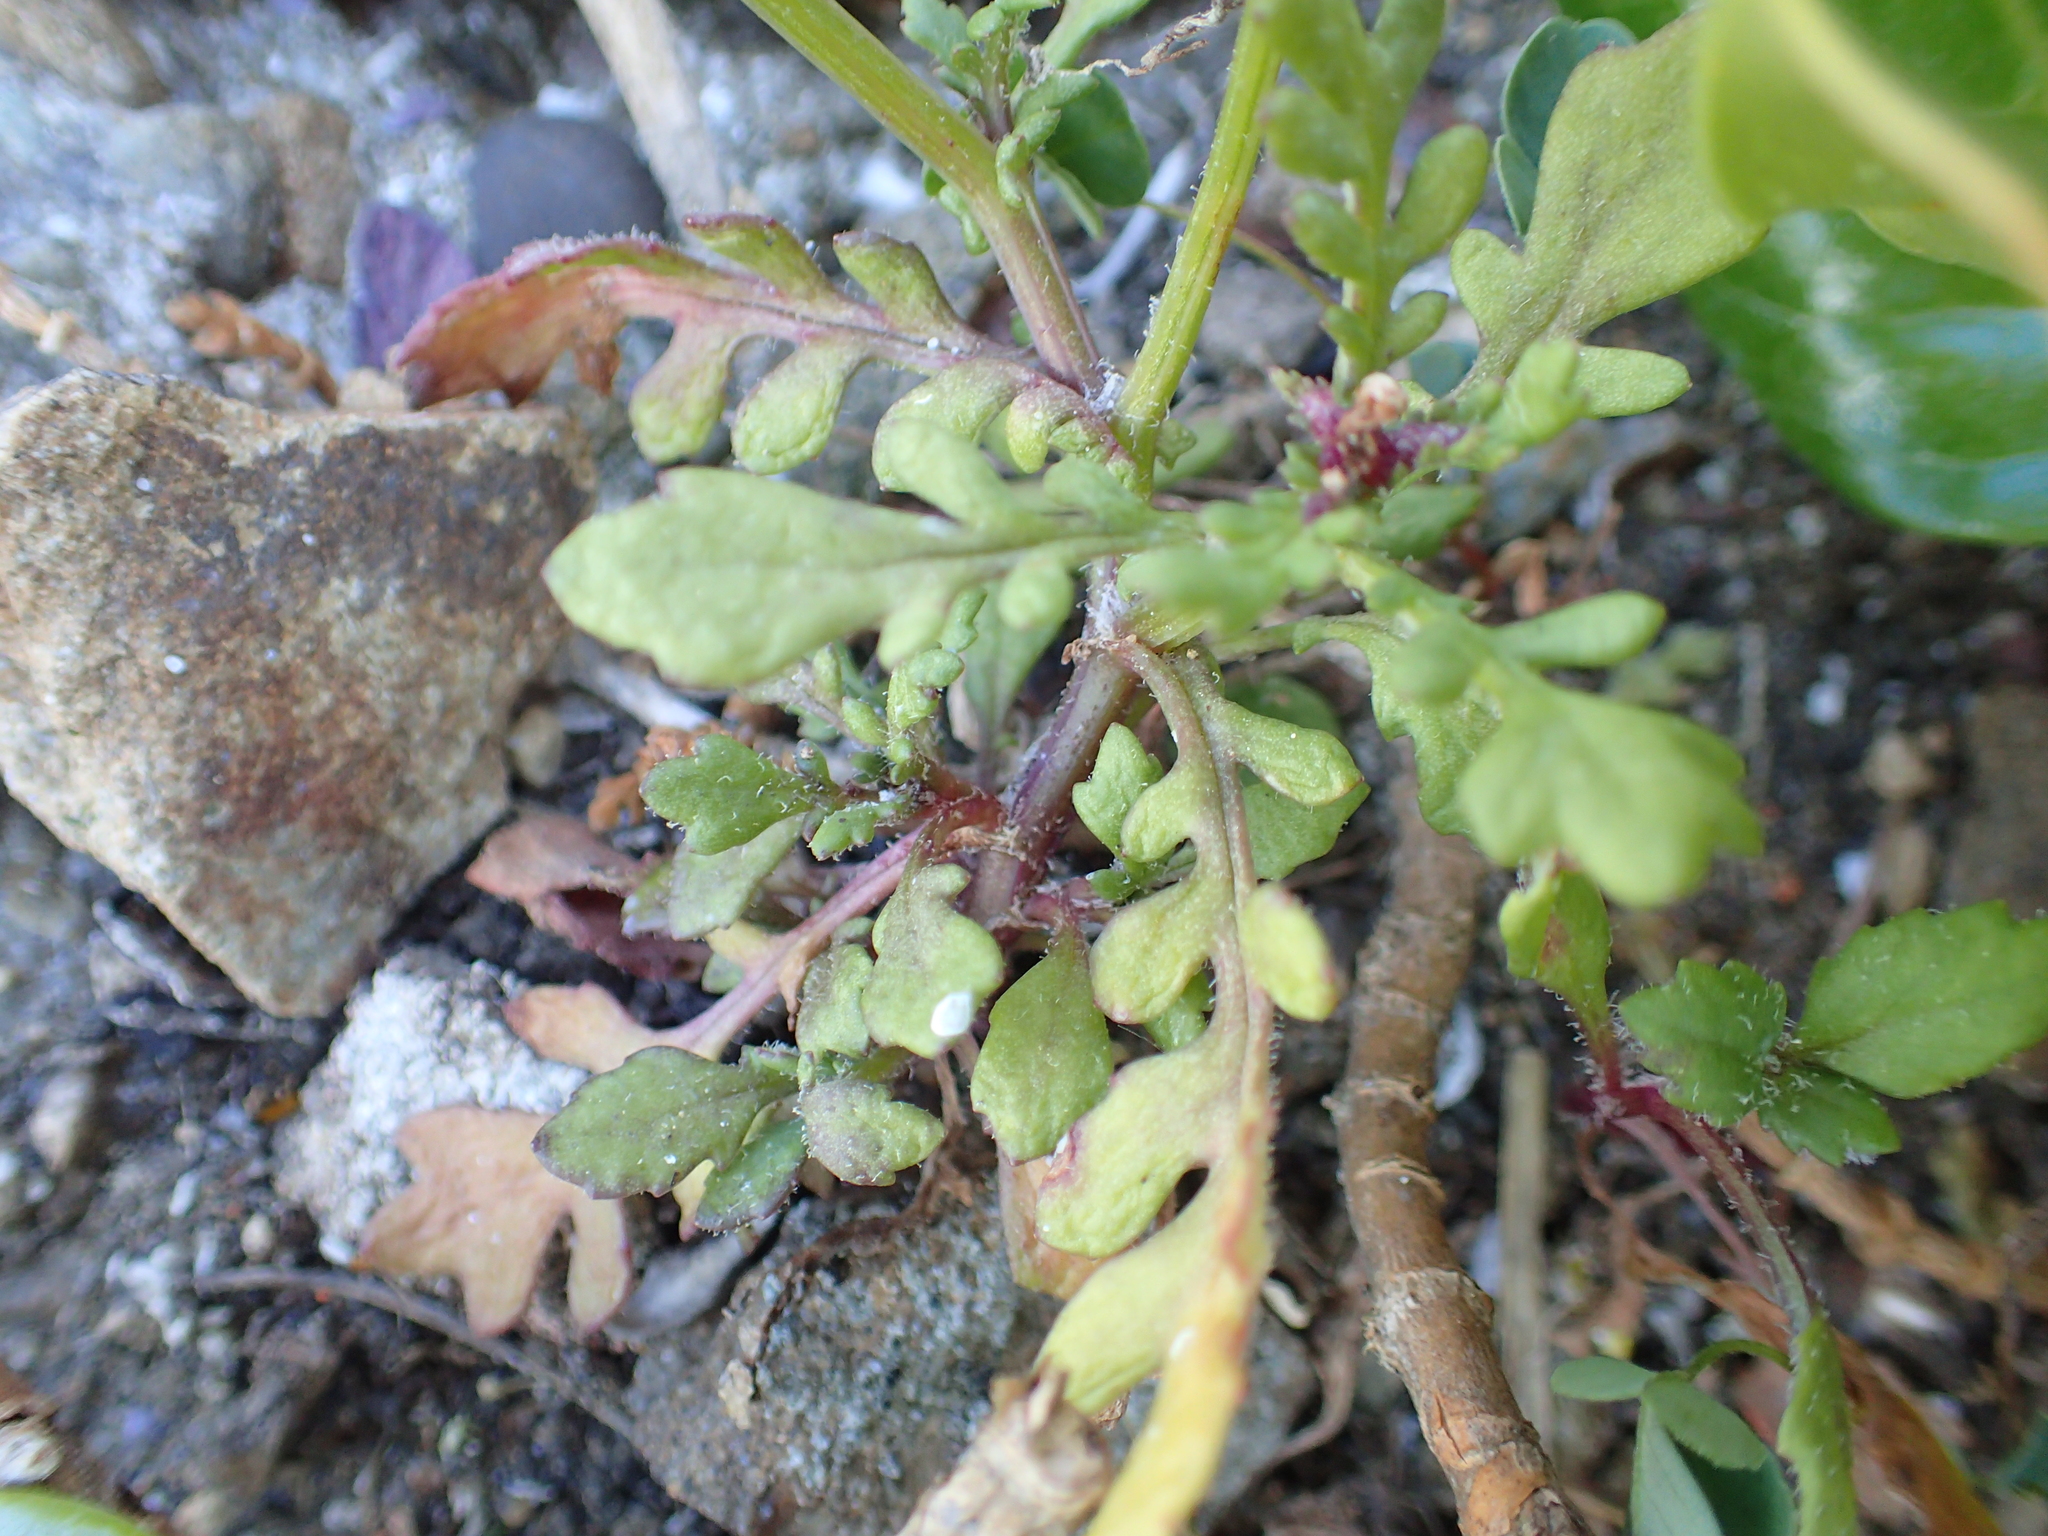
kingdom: Plantae
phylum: Tracheophyta
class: Magnoliopsida
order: Asterales
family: Asteraceae
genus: Senecio
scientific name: Senecio lautus
